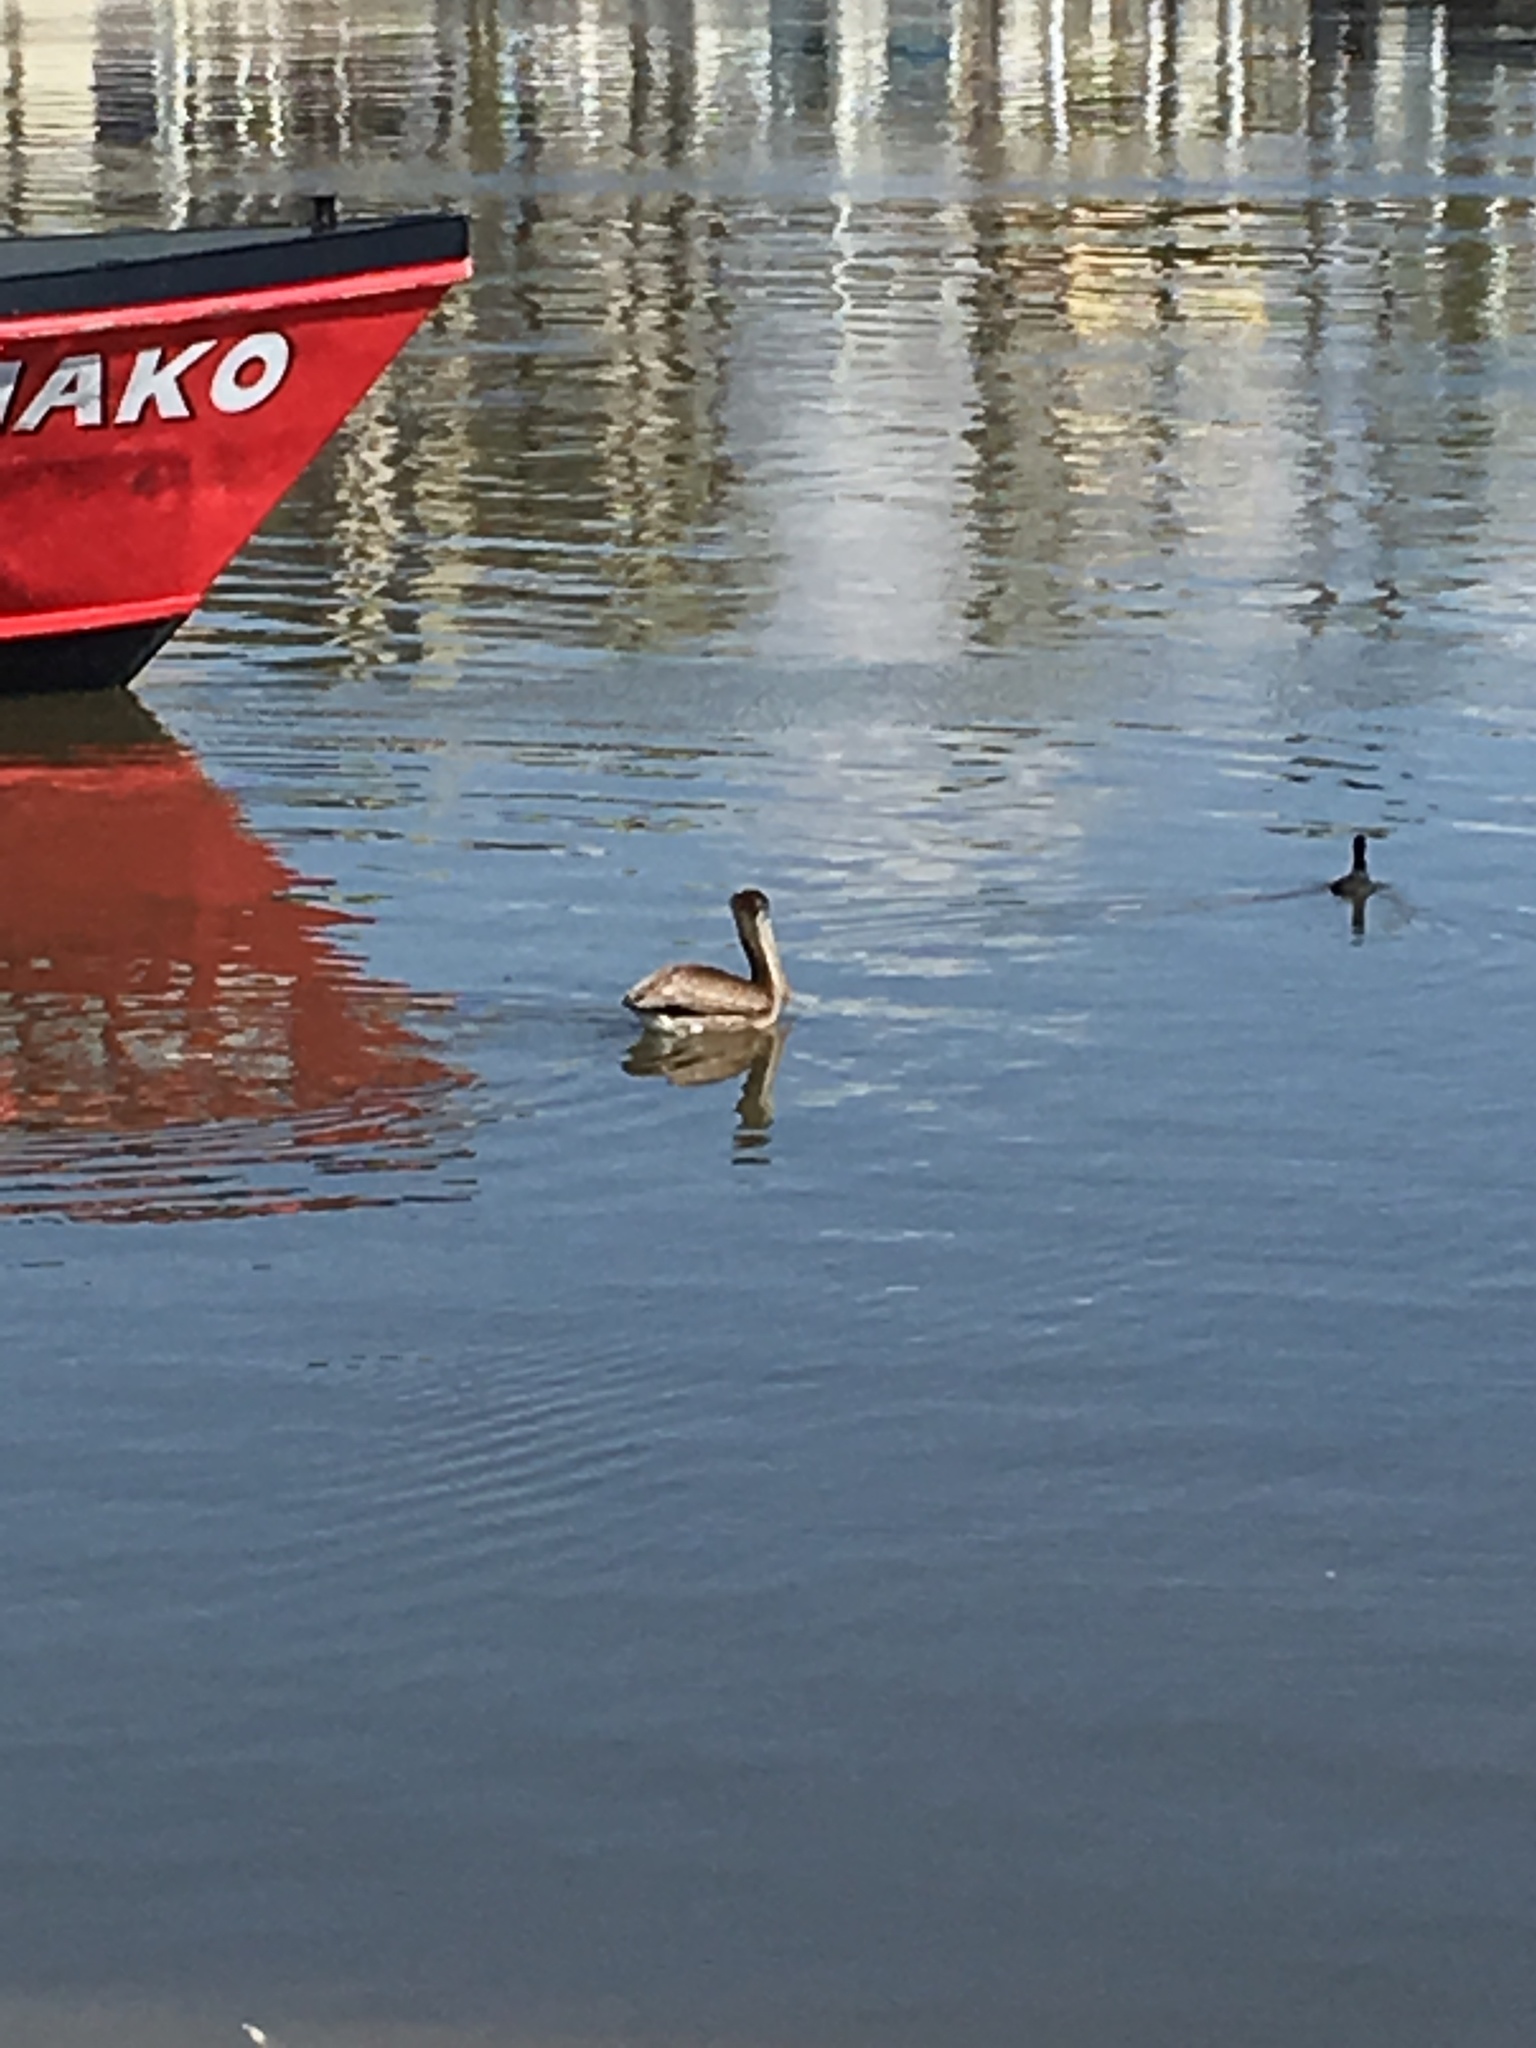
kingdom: Animalia
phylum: Chordata
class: Aves
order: Pelecaniformes
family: Pelecanidae
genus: Pelecanus
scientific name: Pelecanus occidentalis
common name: Brown pelican
